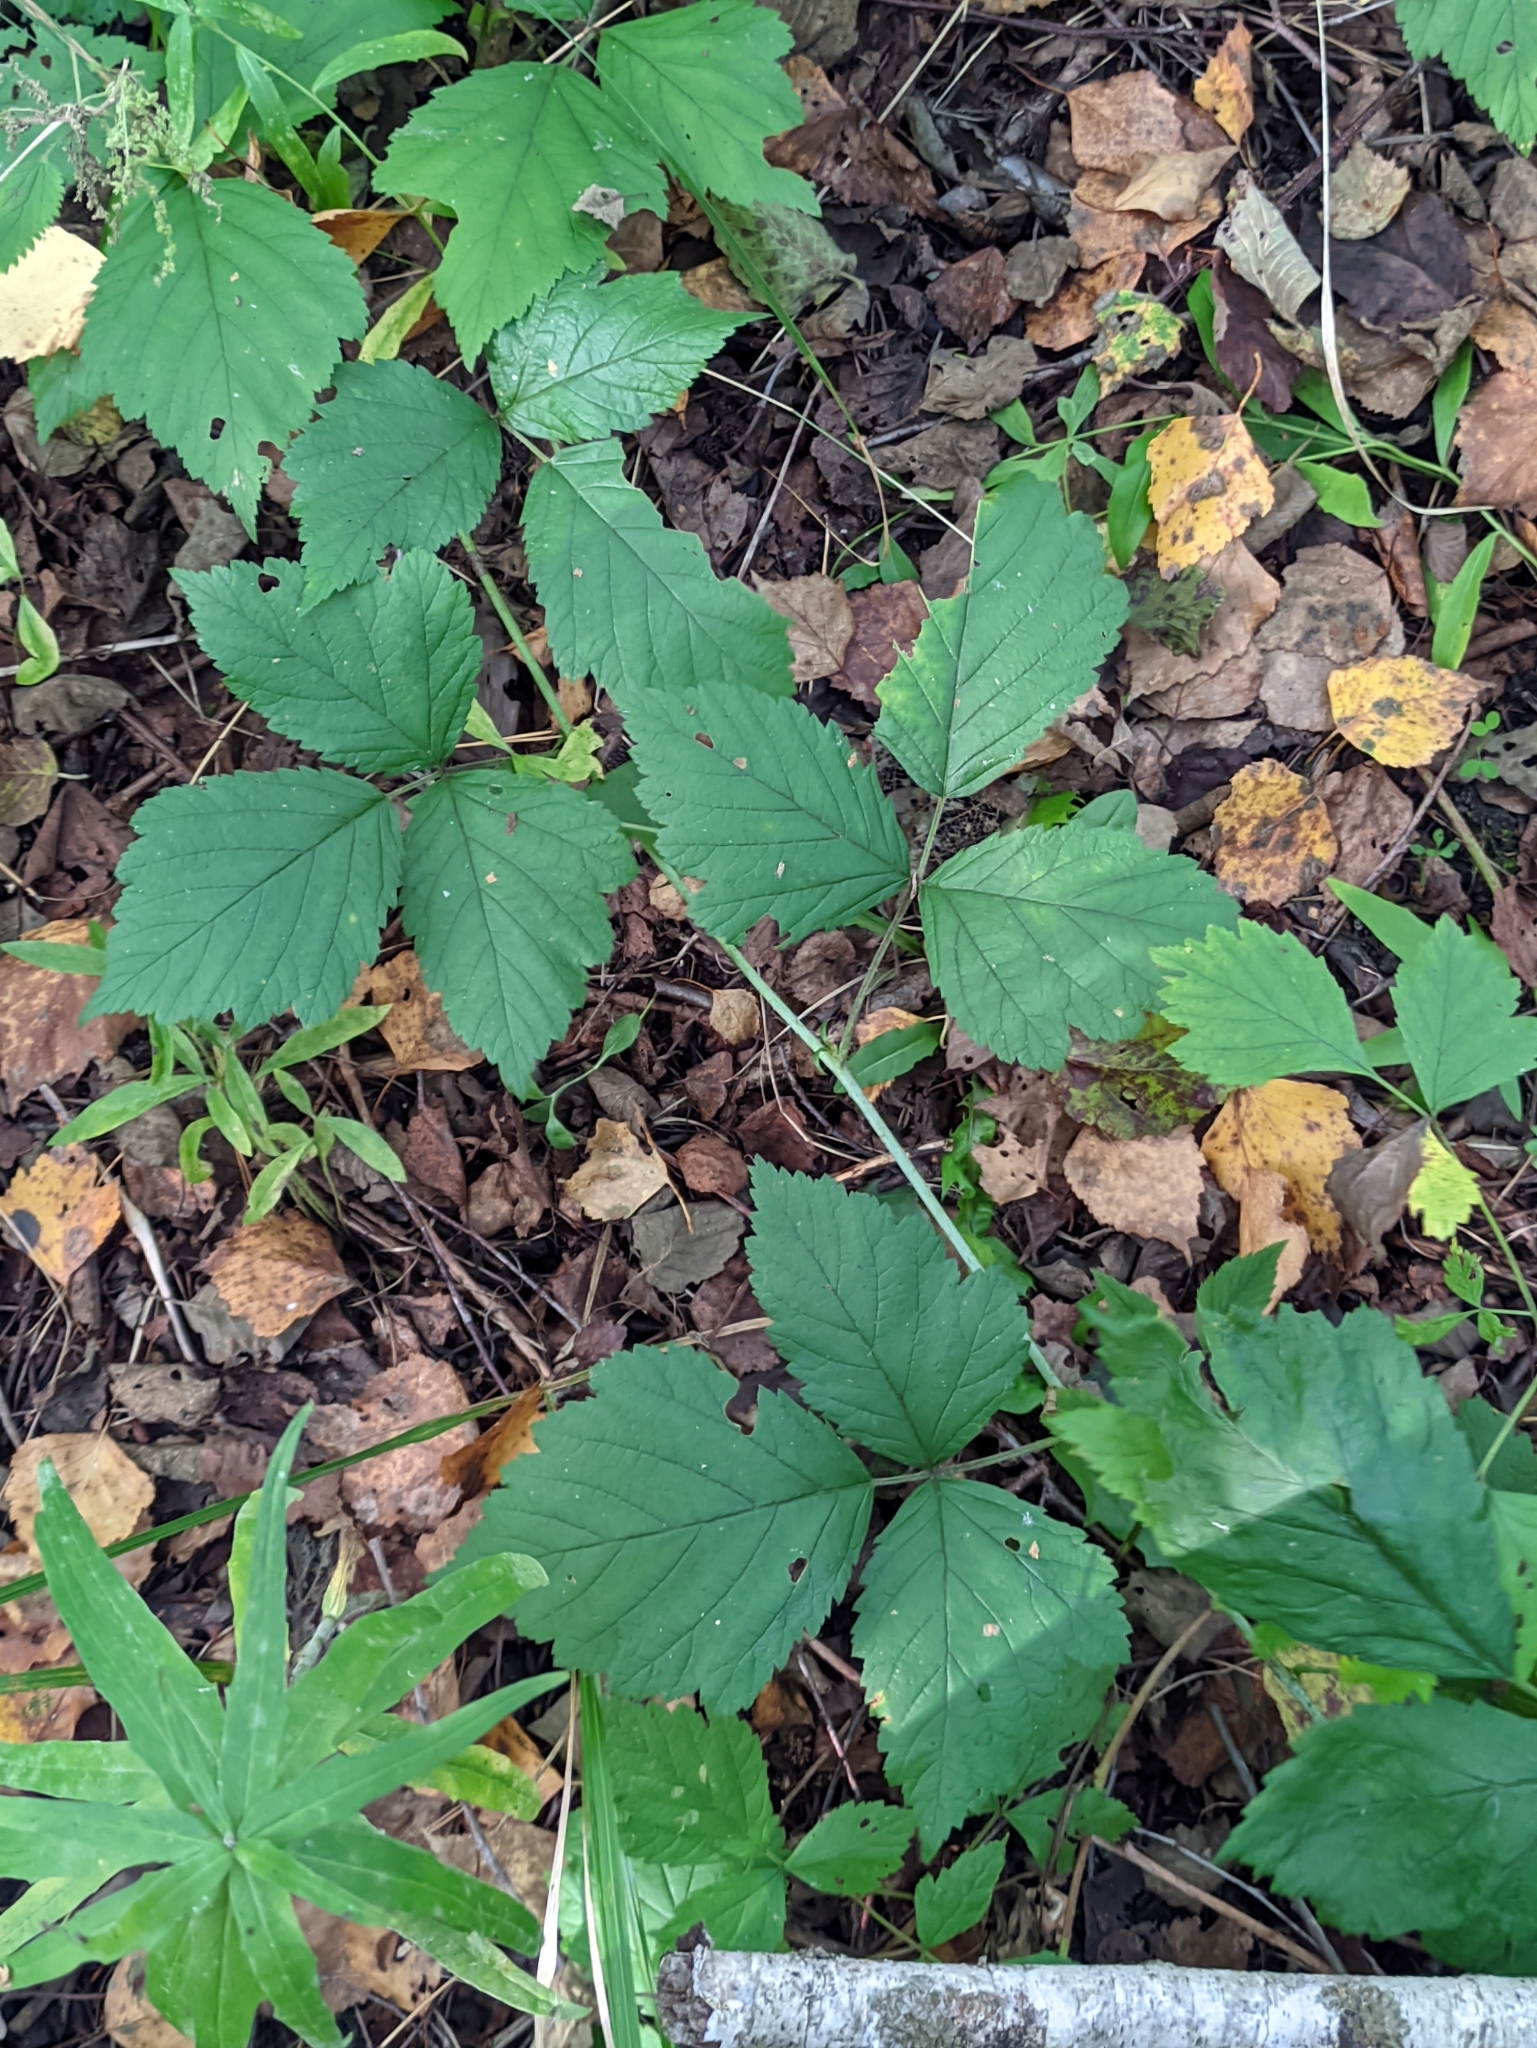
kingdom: Plantae
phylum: Tracheophyta
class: Magnoliopsida
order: Rosales
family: Rosaceae
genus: Rubus
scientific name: Rubus saxatilis
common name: Stone bramble
